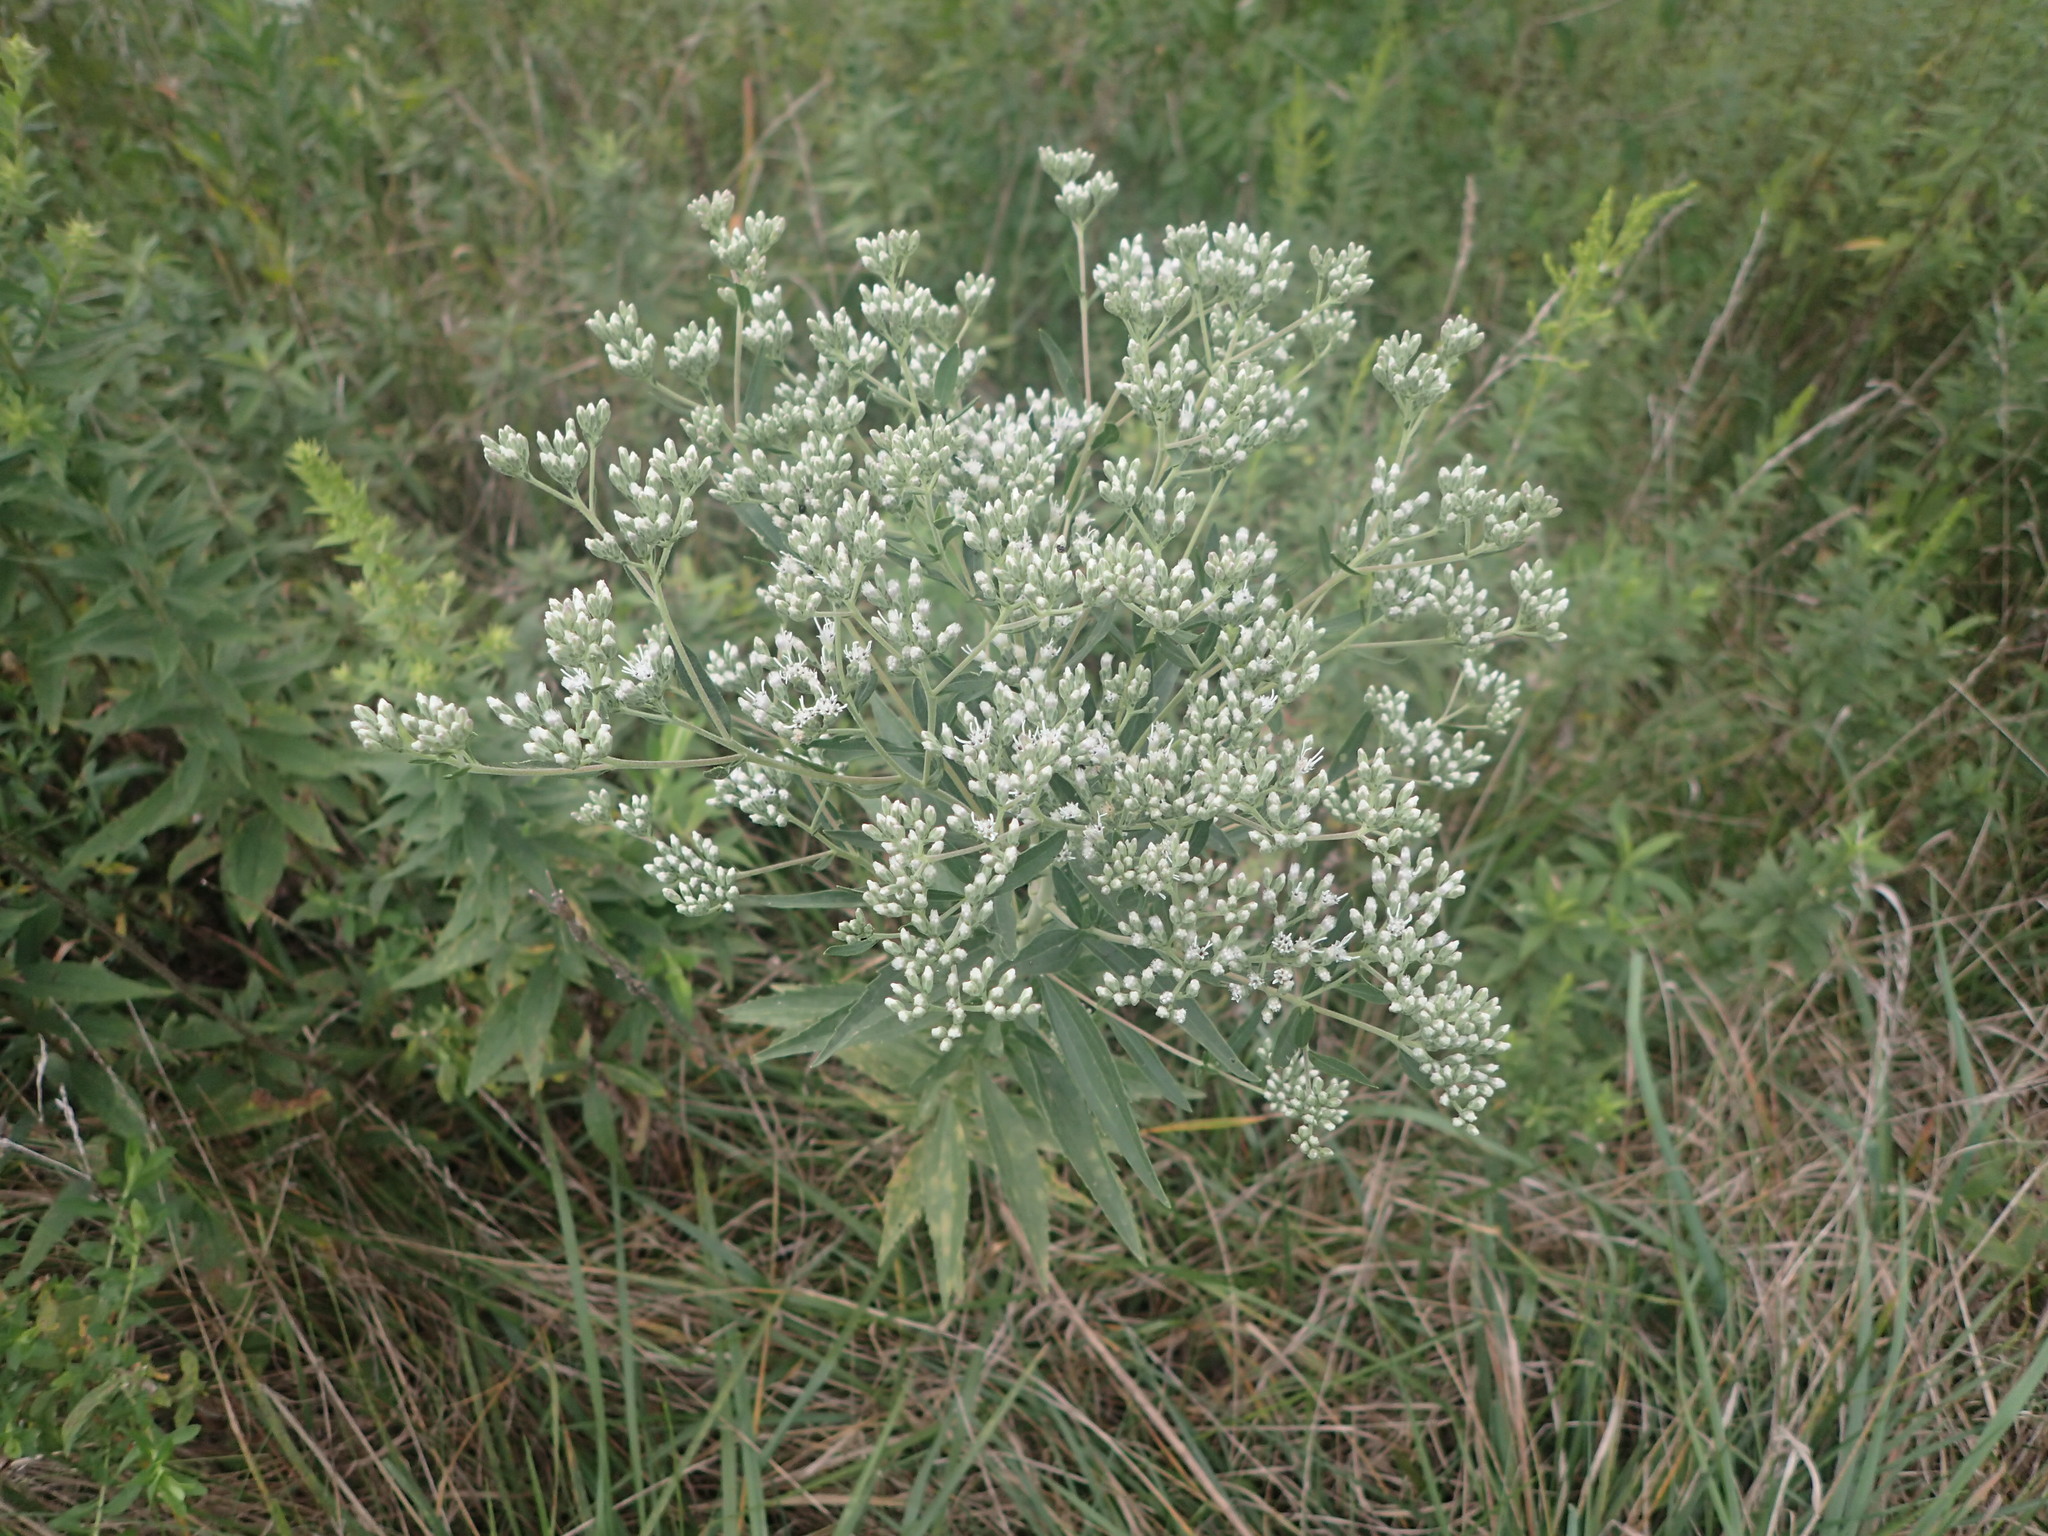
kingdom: Plantae
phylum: Tracheophyta
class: Magnoliopsida
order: Asterales
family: Asteraceae
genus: Eupatorium
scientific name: Eupatorium altissimum
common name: Tall thoroughwort
